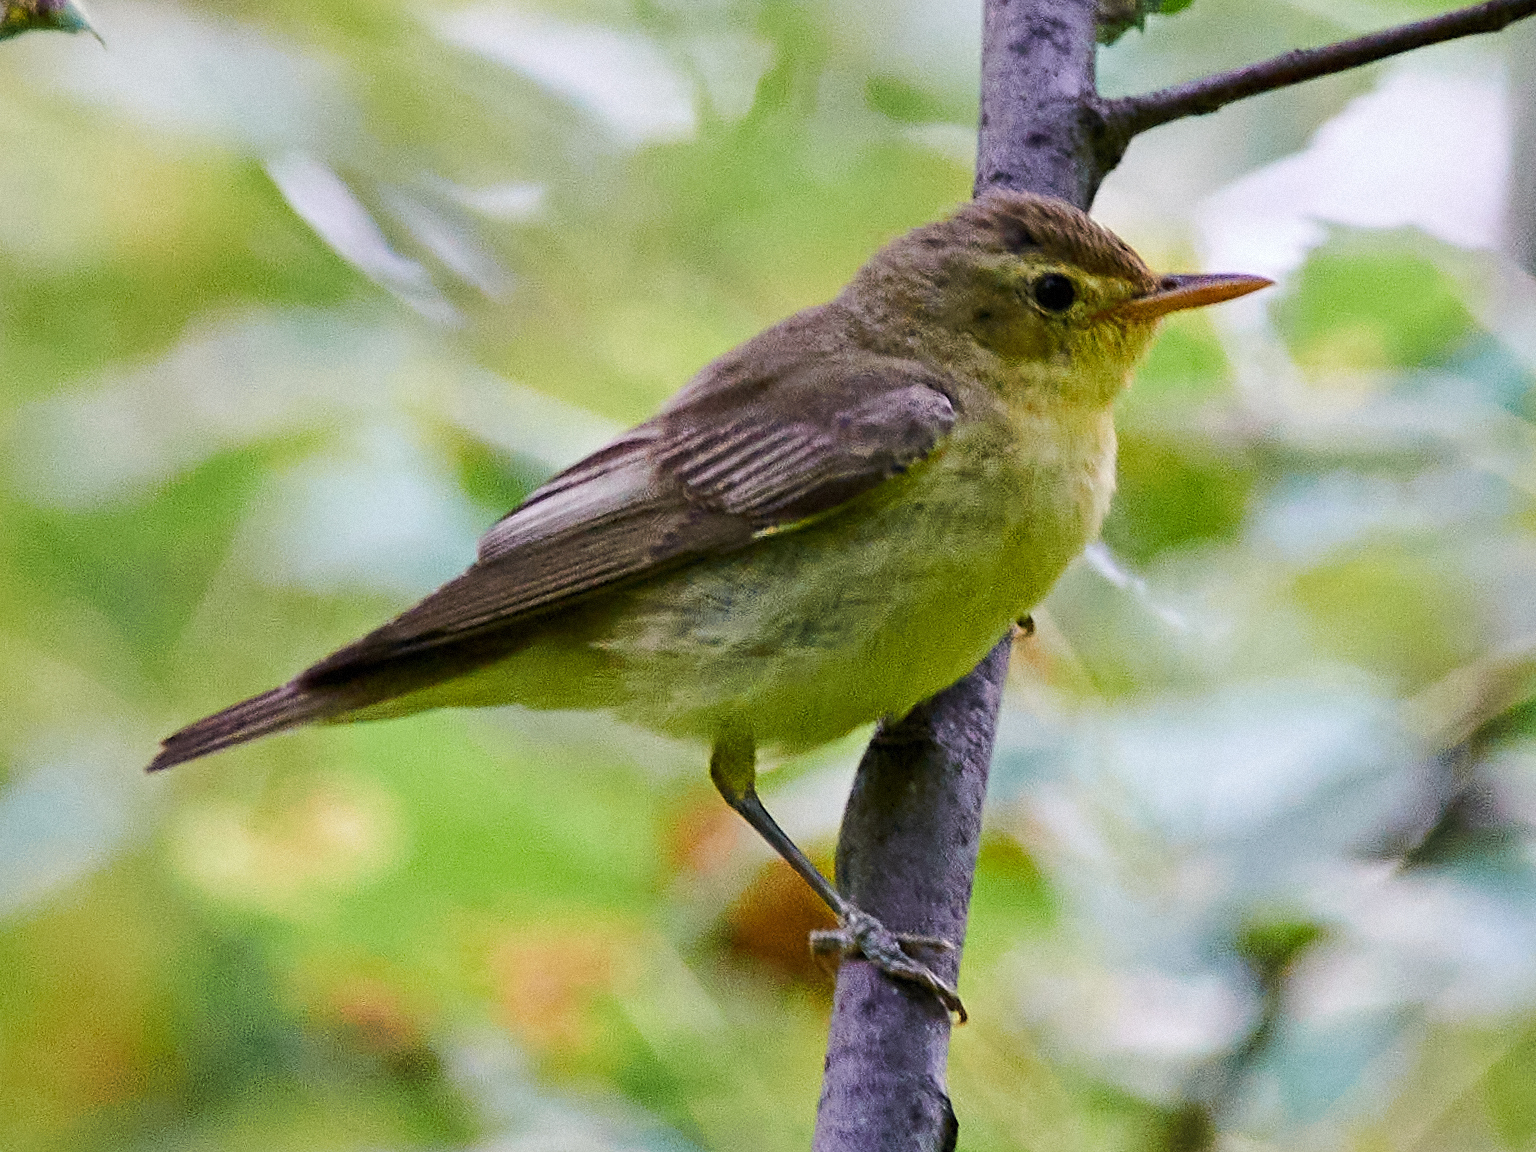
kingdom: Animalia
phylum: Chordata
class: Aves
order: Passeriformes
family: Acrocephalidae
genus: Hippolais
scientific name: Hippolais icterina
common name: Icterine warbler
